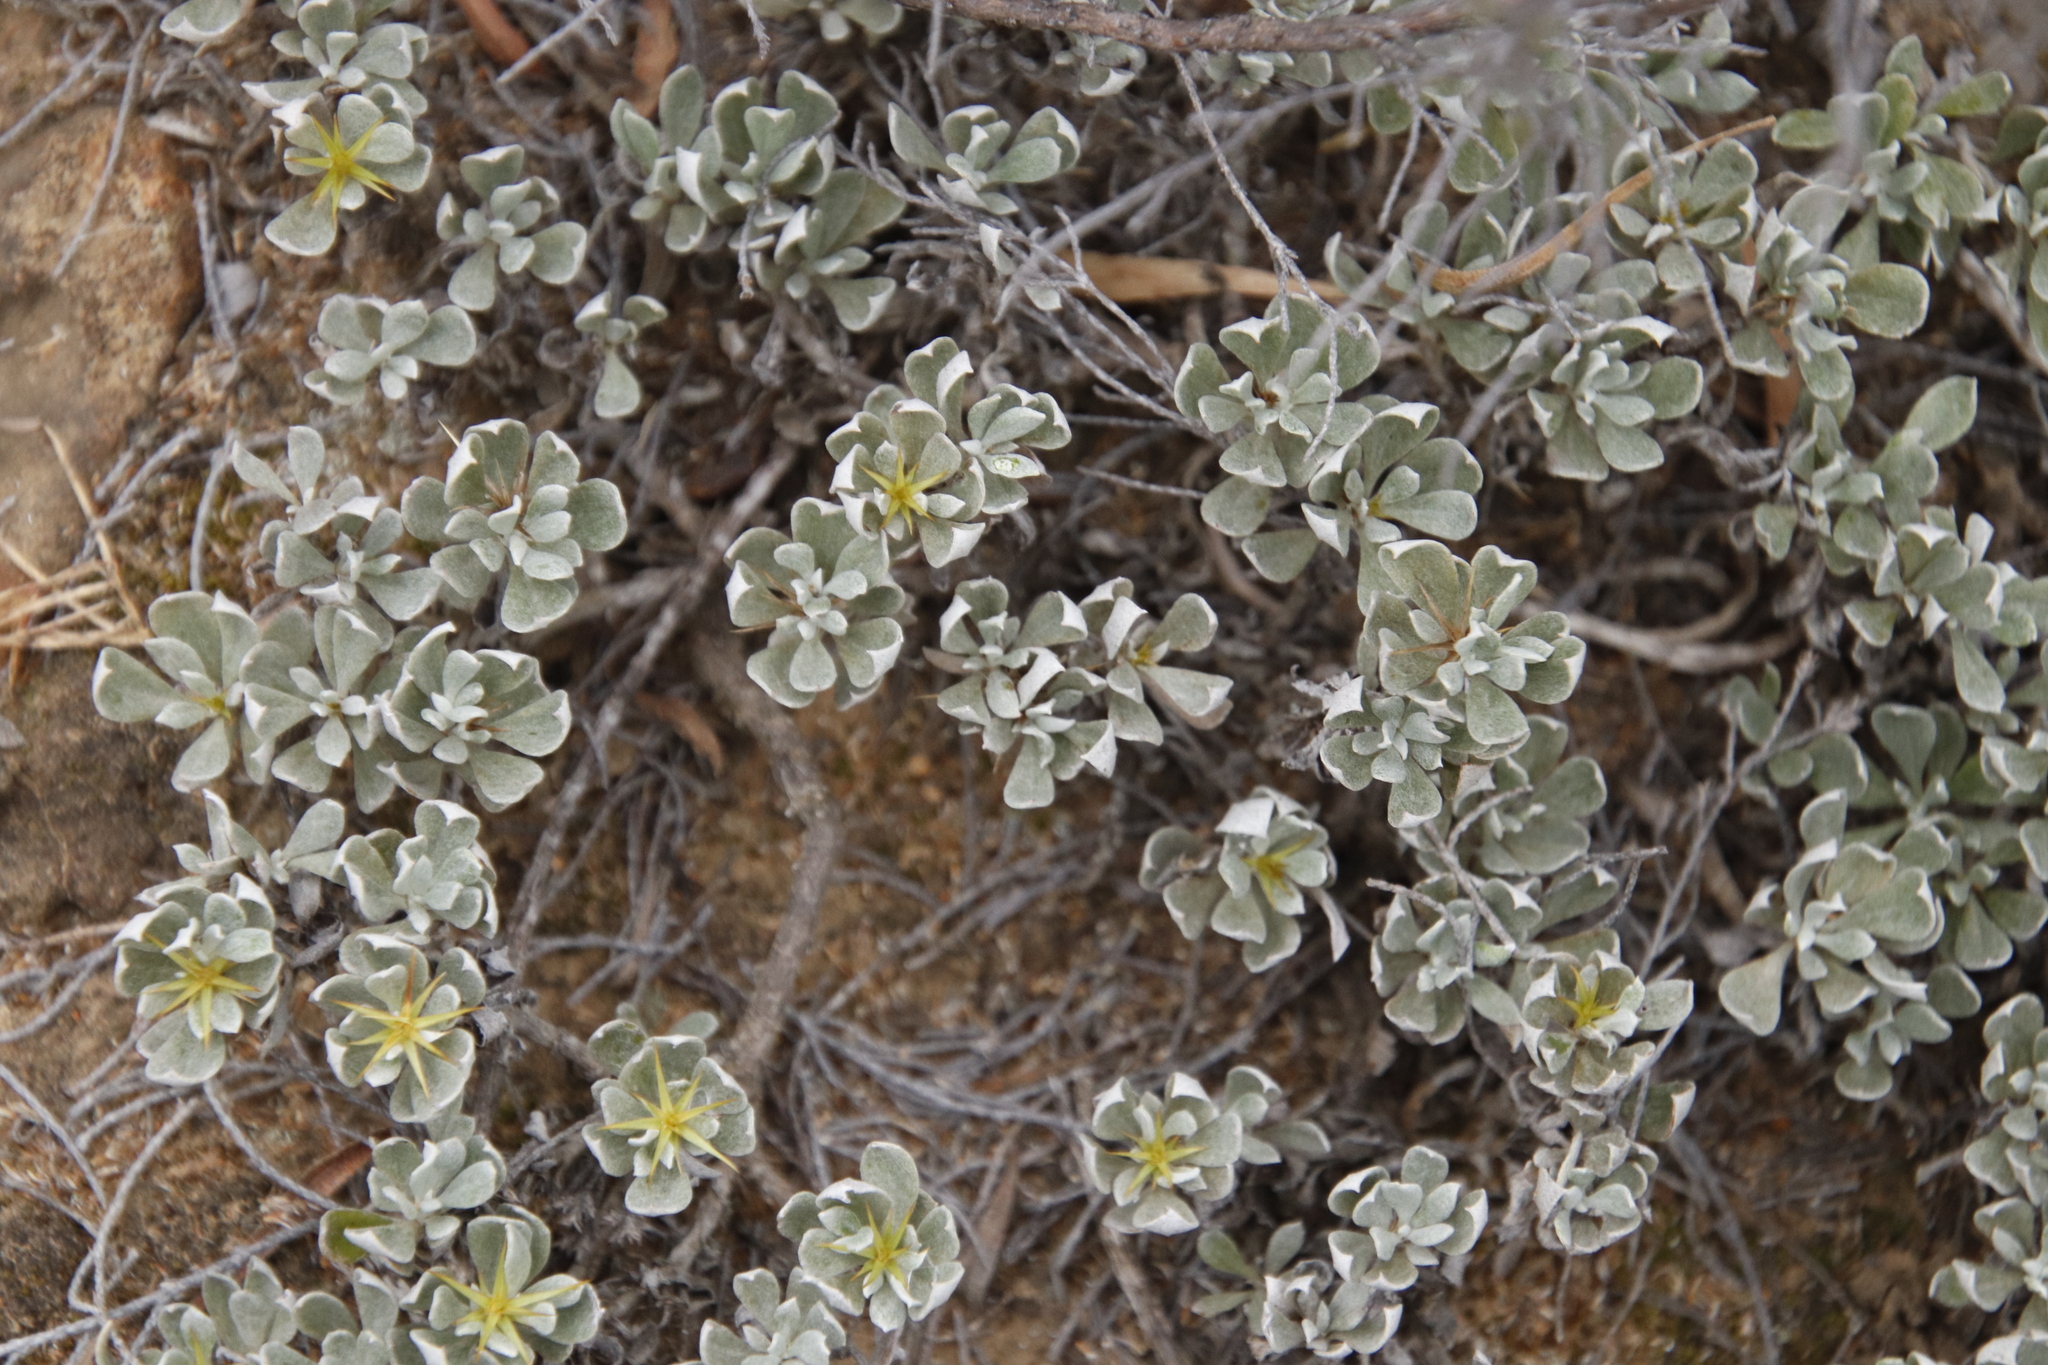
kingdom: Plantae
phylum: Tracheophyta
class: Magnoliopsida
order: Asterales
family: Asteraceae
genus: Macledium
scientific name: Macledium spinosum
